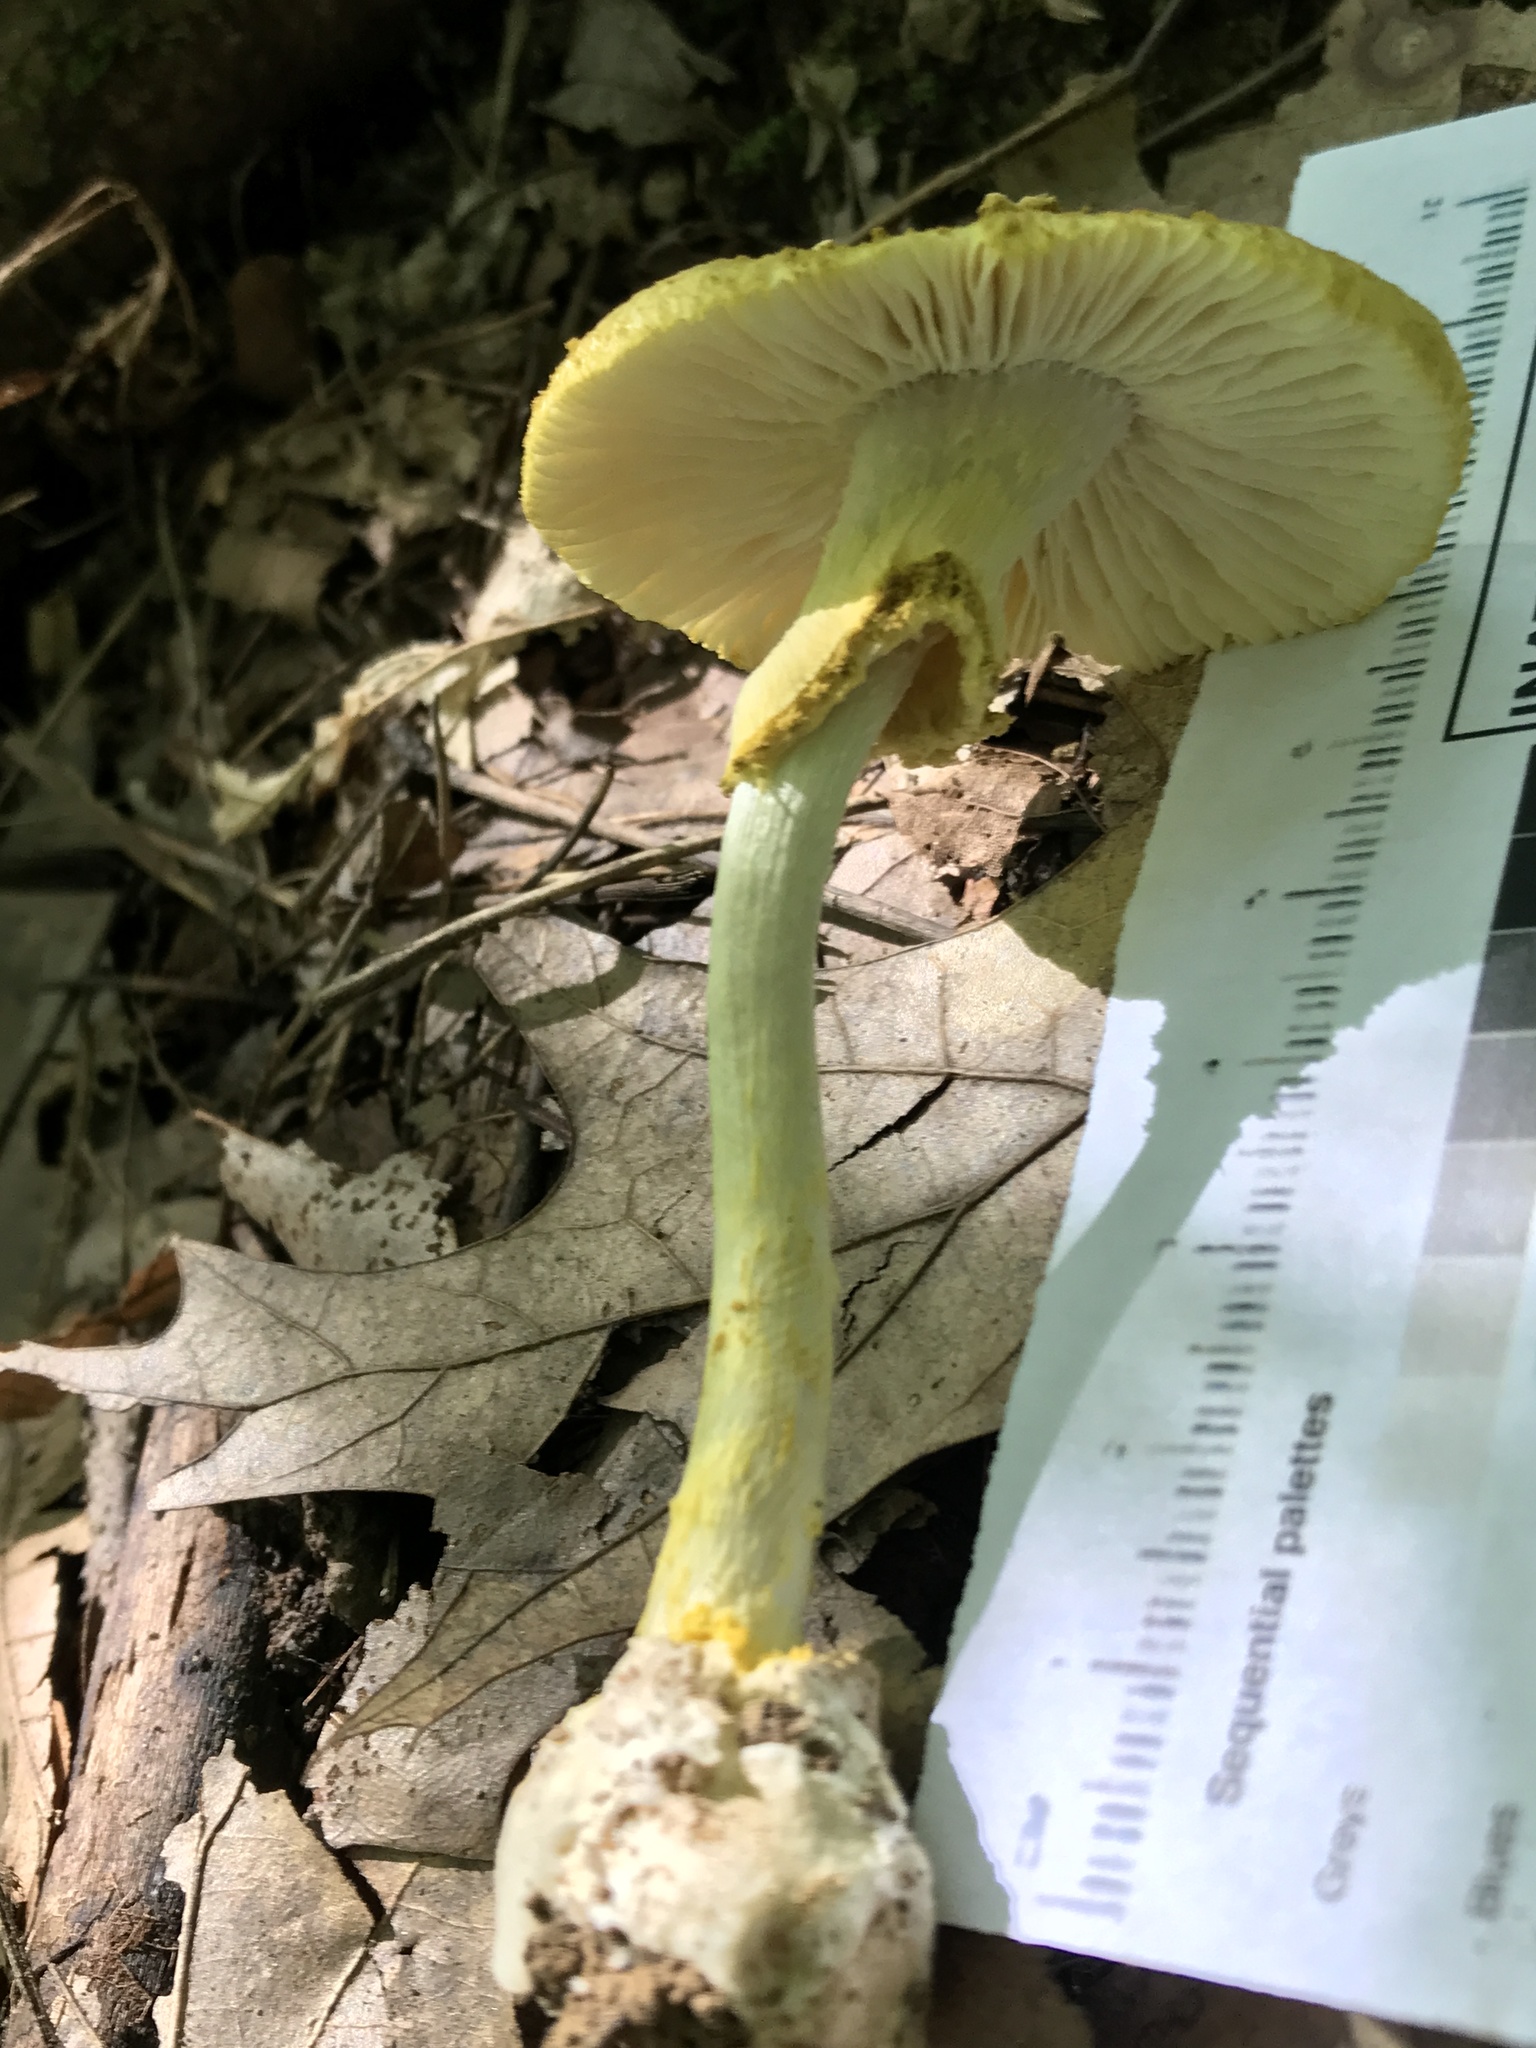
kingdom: Fungi
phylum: Basidiomycota
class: Agaricomycetes
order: Agaricales
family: Amanitaceae
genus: Amanita
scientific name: Amanita levistriata
